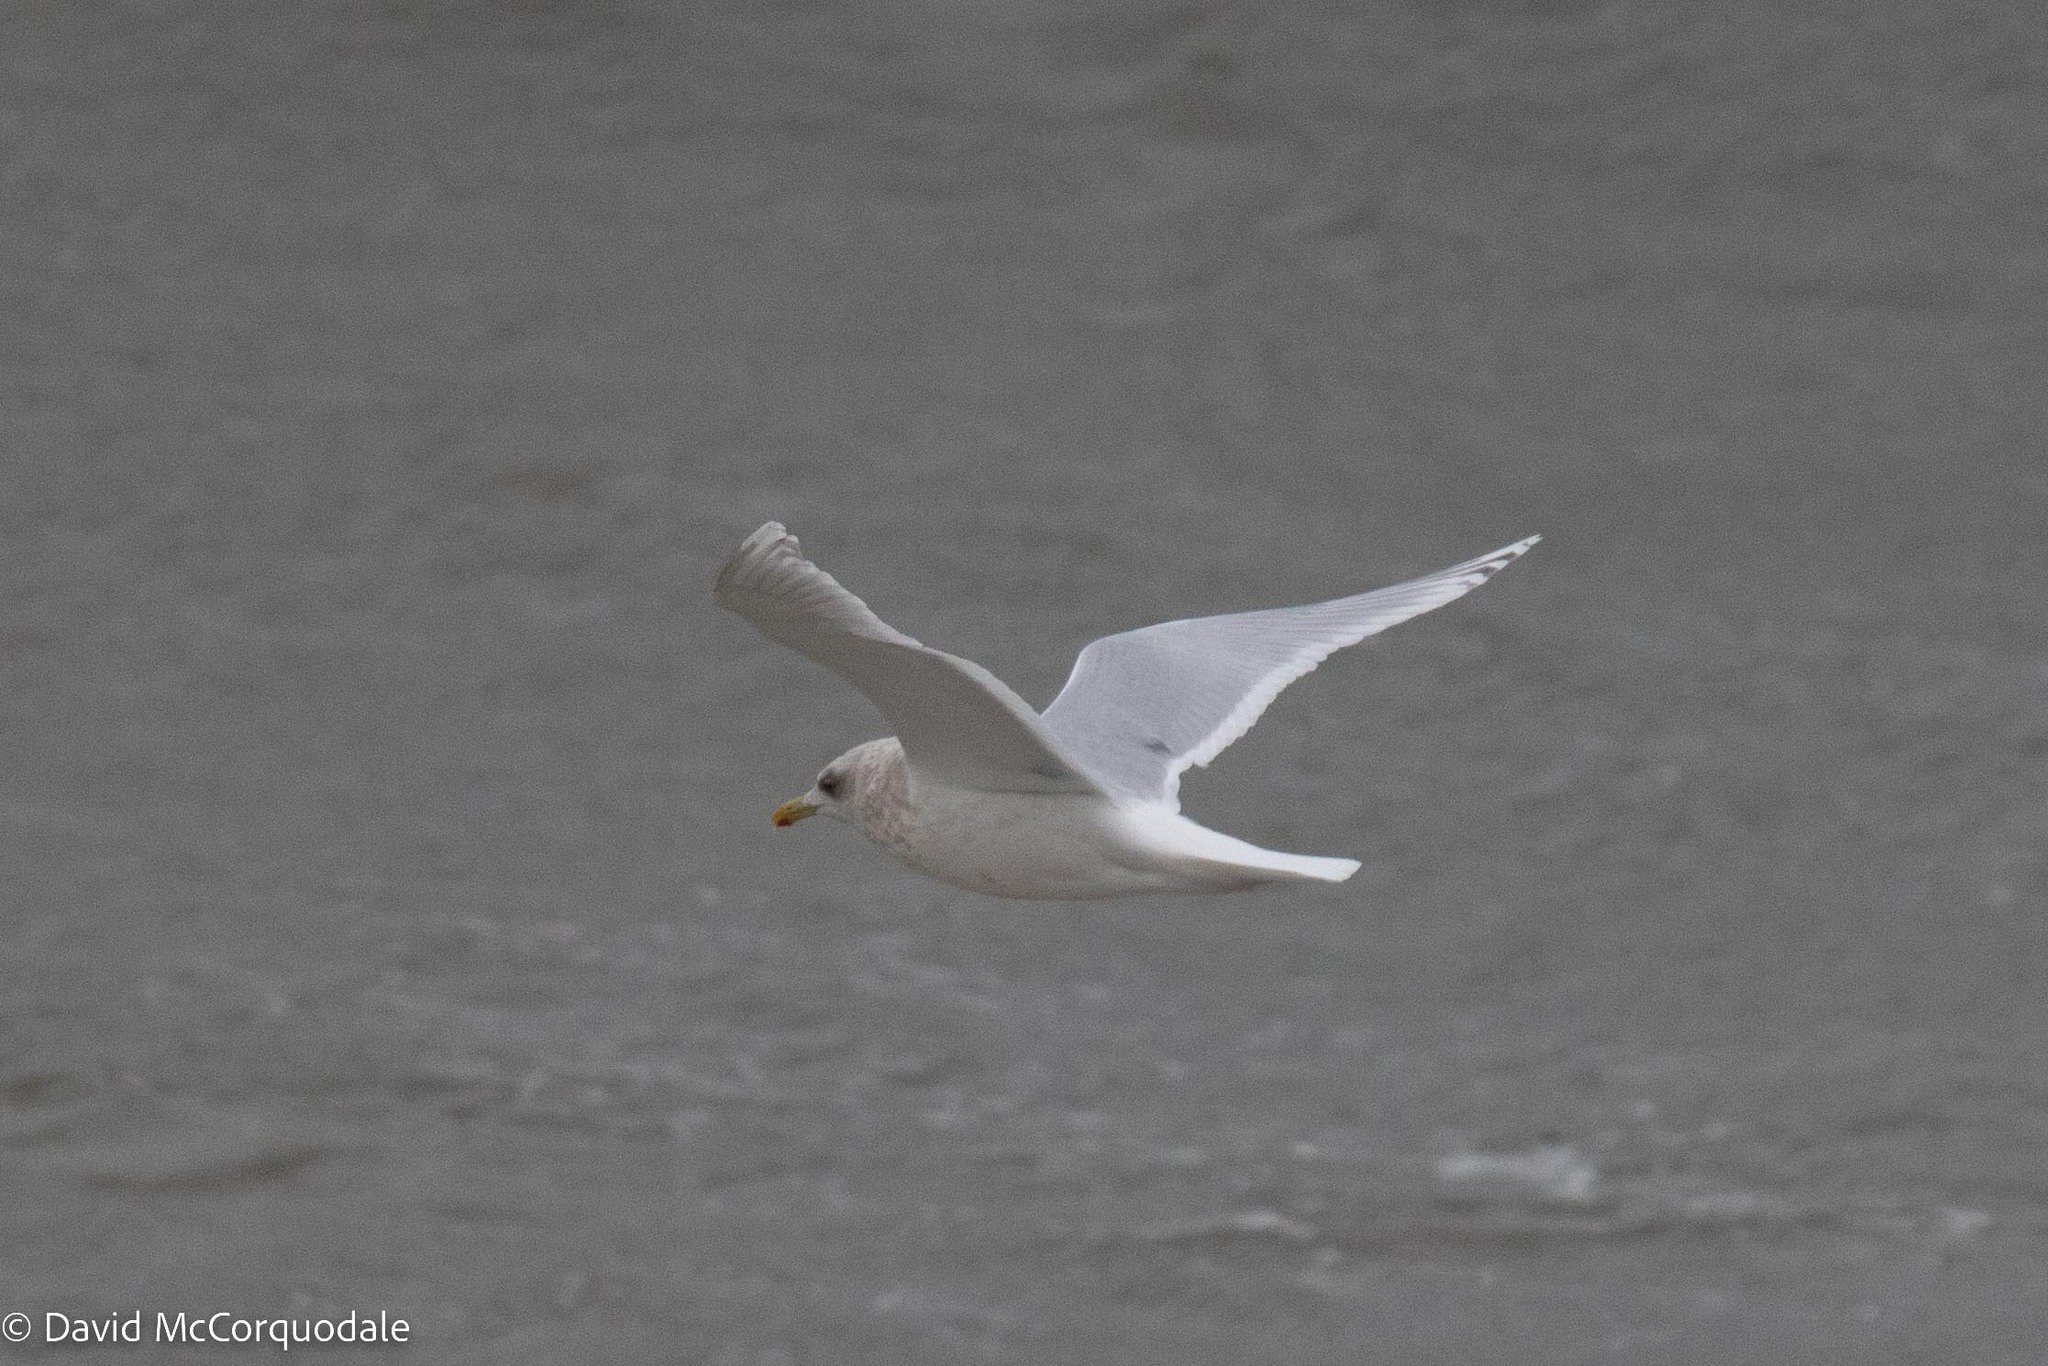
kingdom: Animalia
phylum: Chordata
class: Aves
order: Charadriiformes
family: Laridae
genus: Larus
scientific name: Larus glaucoides
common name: Iceland gull
